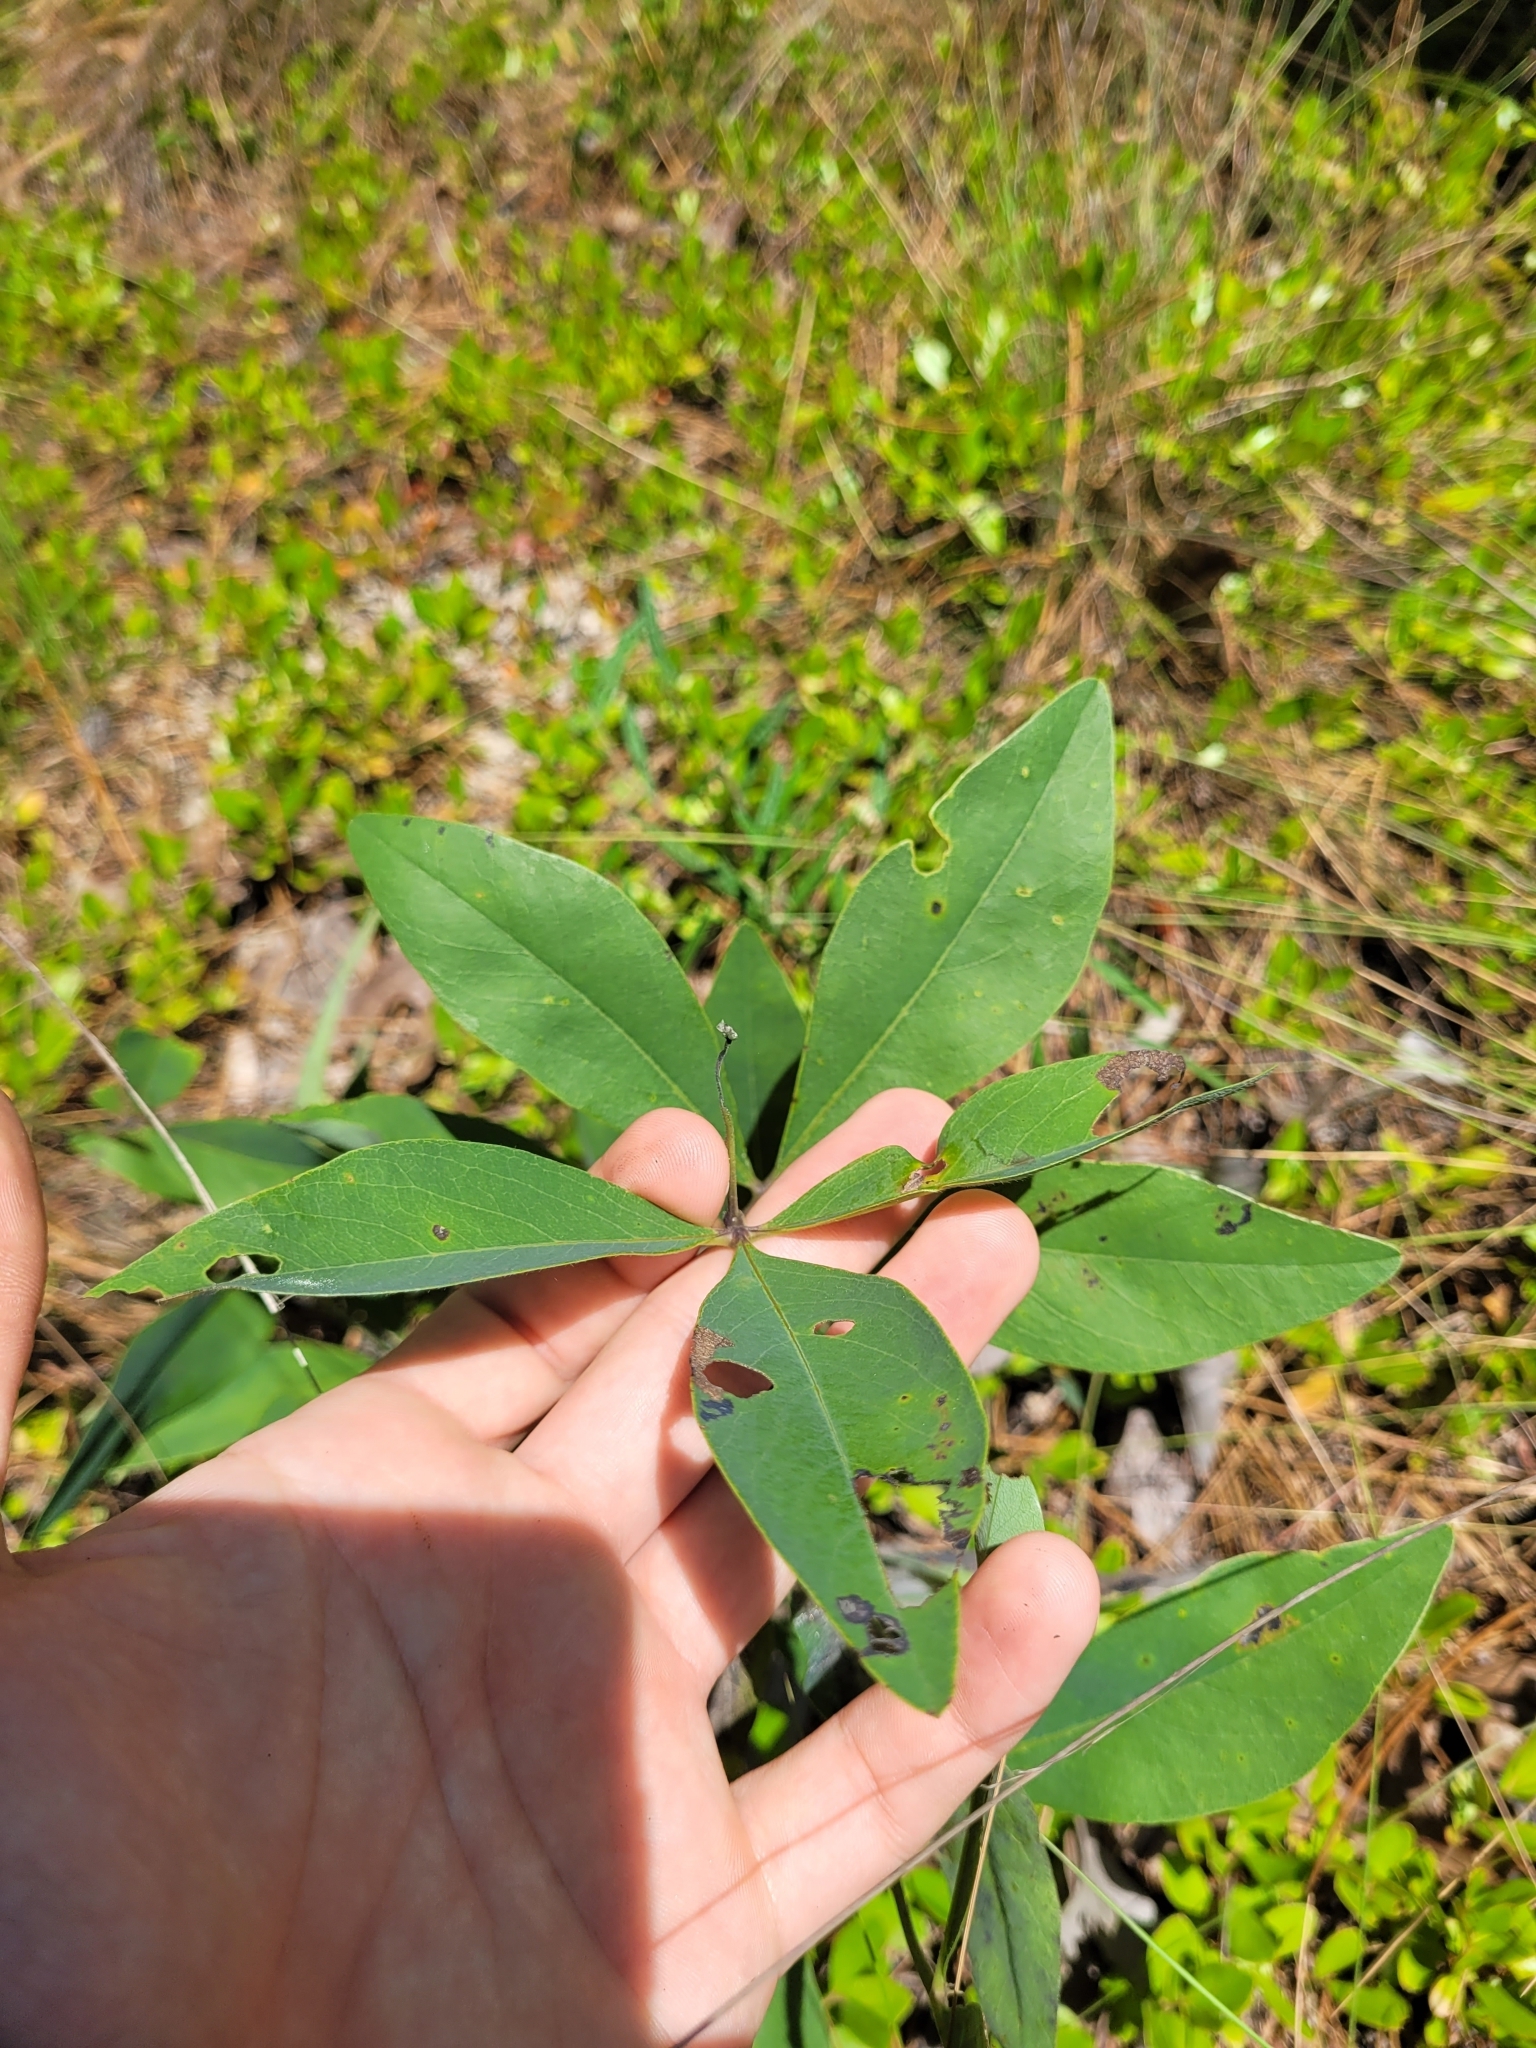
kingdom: Plantae
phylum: Tracheophyta
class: Magnoliopsida
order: Fabales
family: Fabaceae
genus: Baptisia
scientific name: Baptisia cinerea
